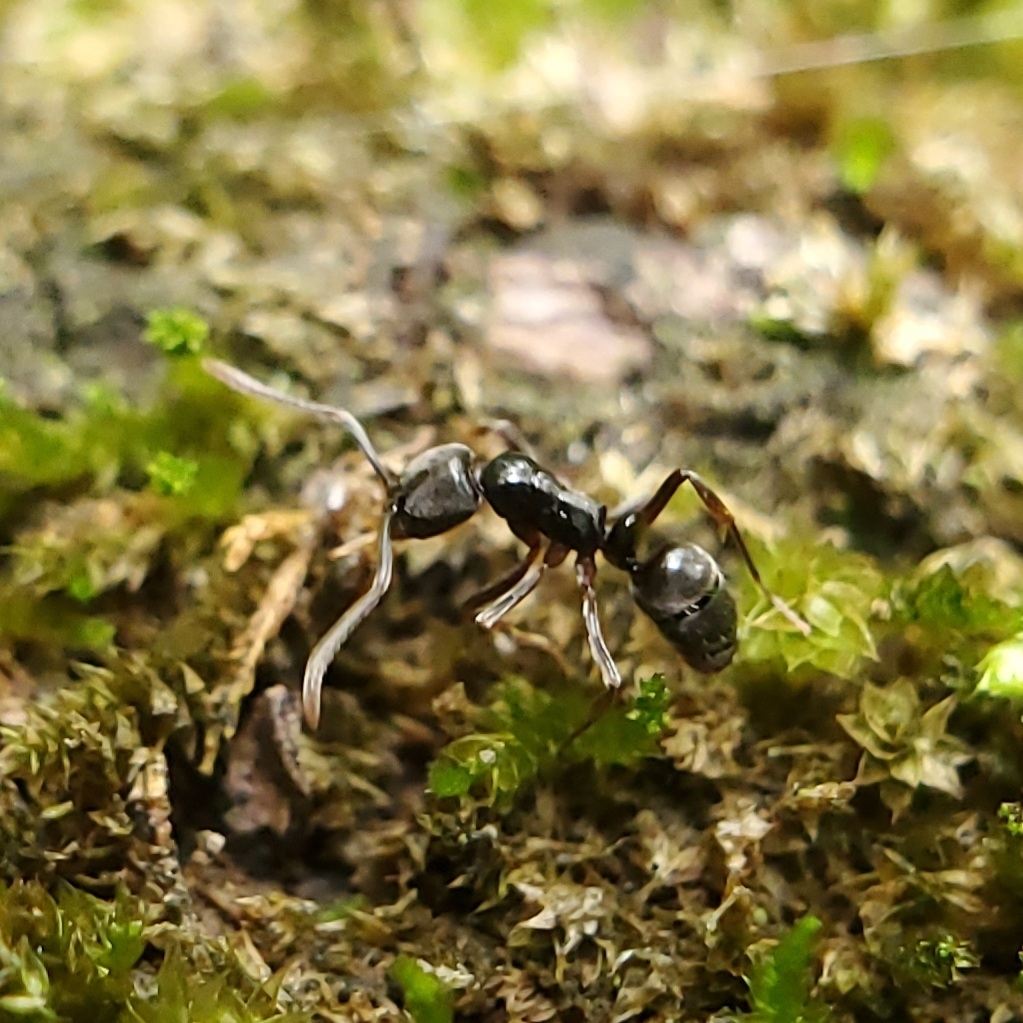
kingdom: Animalia
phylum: Arthropoda
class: Insecta
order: Hymenoptera
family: Formicidae
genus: Pachycondyla
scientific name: Pachycondyla chinensis
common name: Asian needle ant
